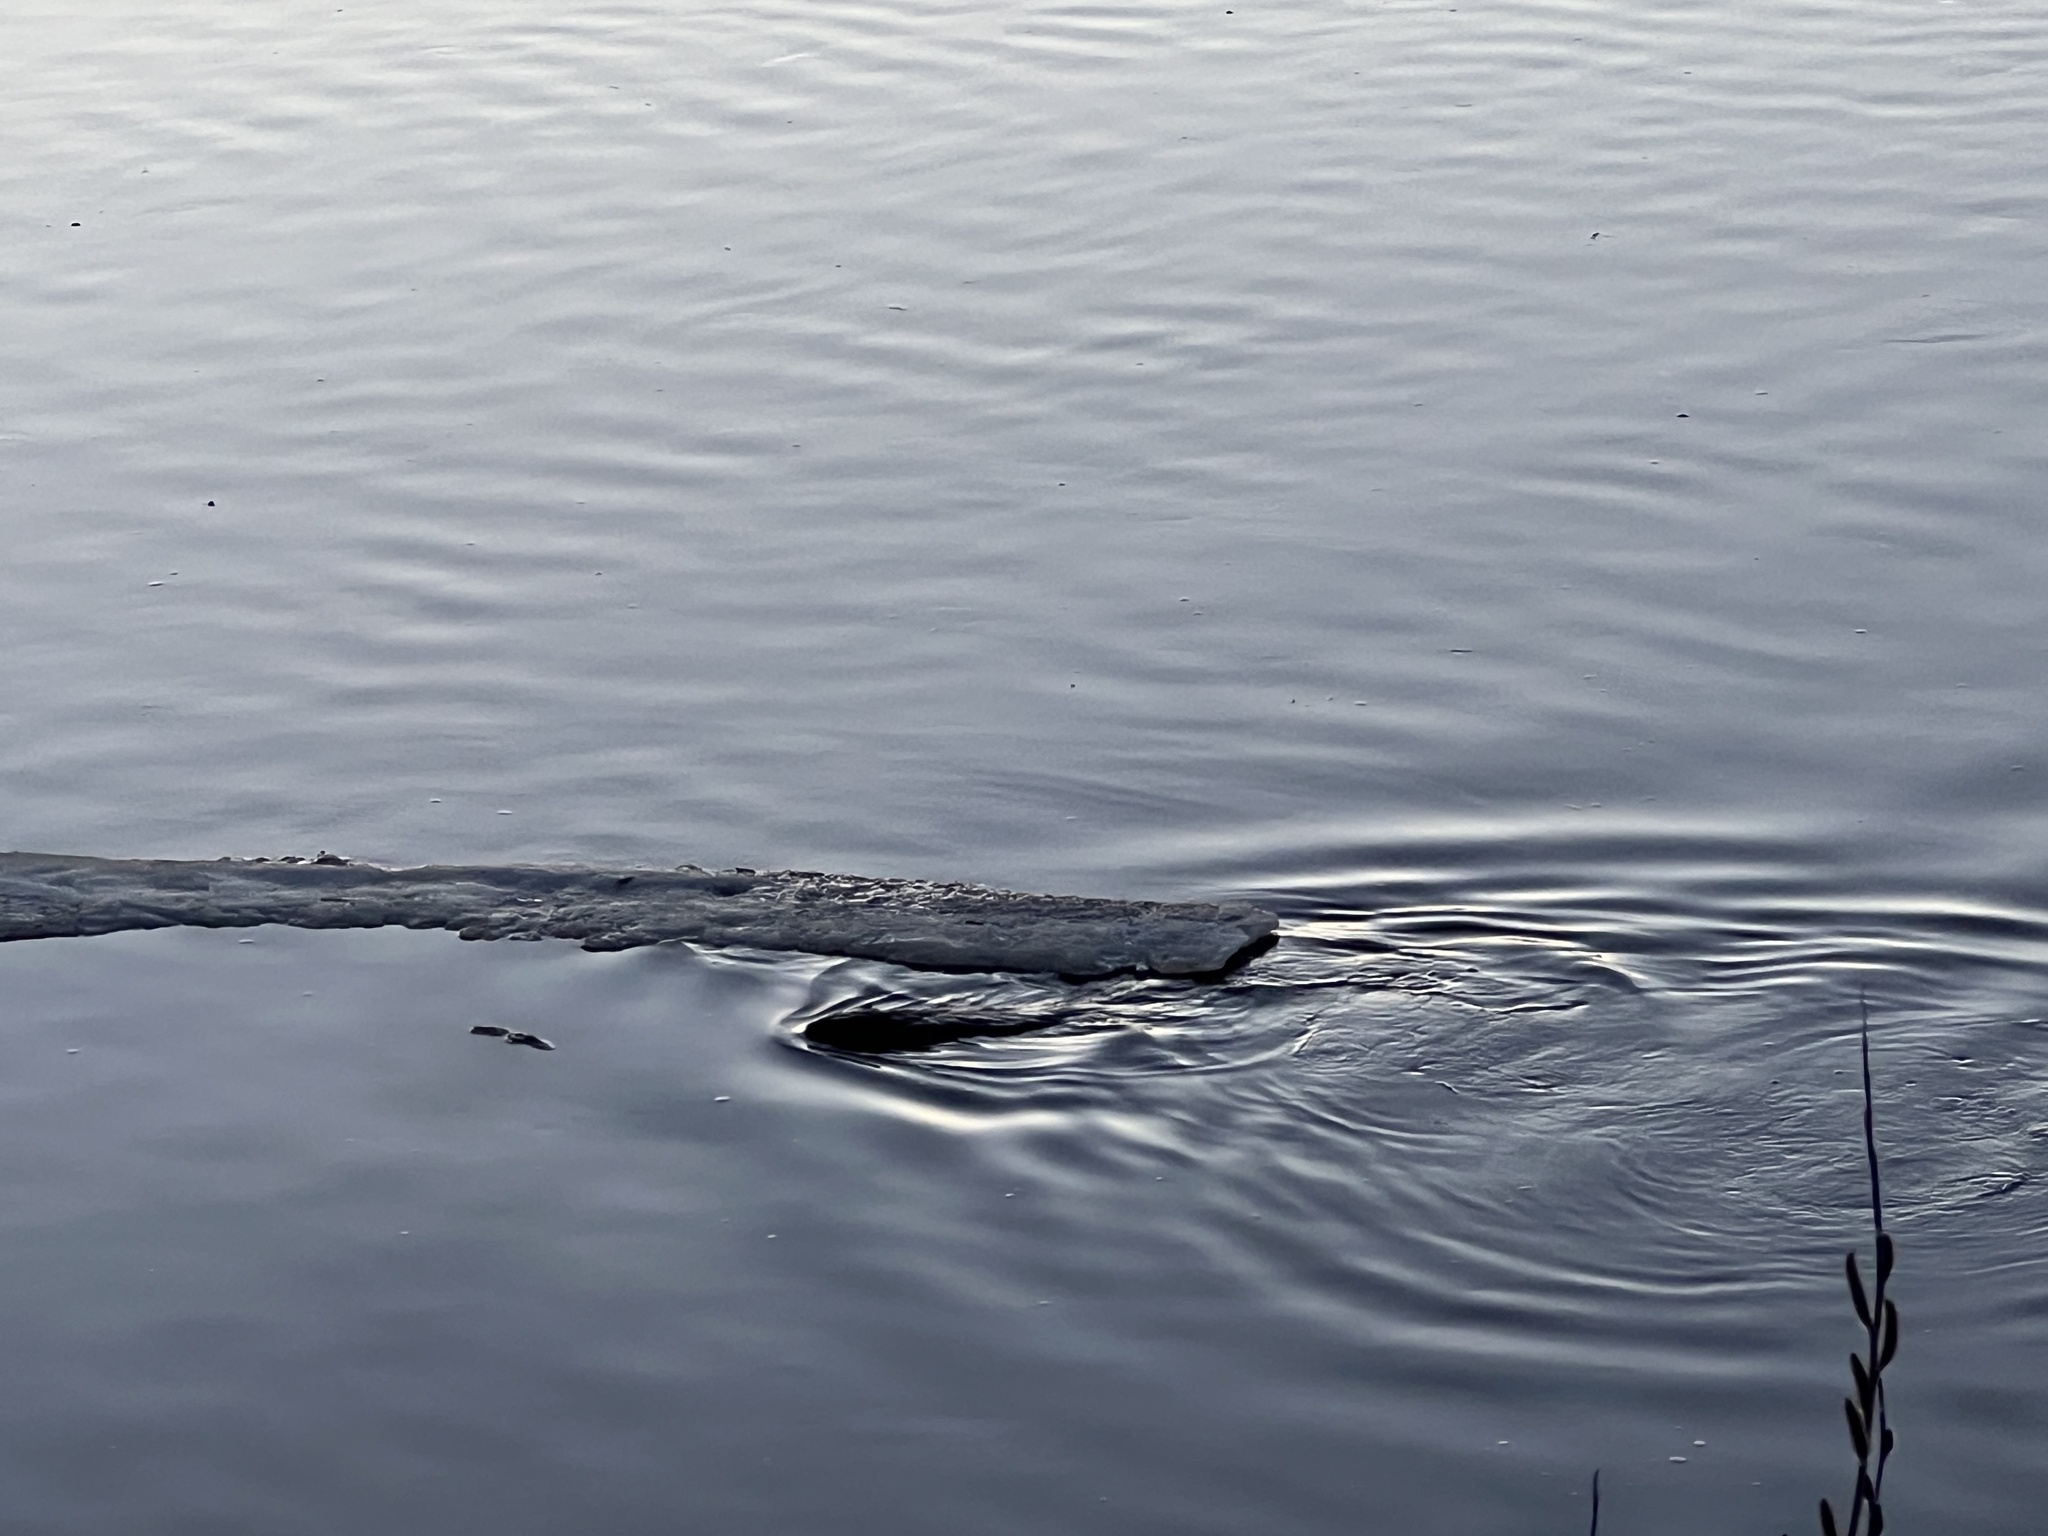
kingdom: Animalia
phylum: Chordata
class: Mammalia
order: Rodentia
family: Castoridae
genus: Castor
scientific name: Castor canadensis
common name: American beaver
